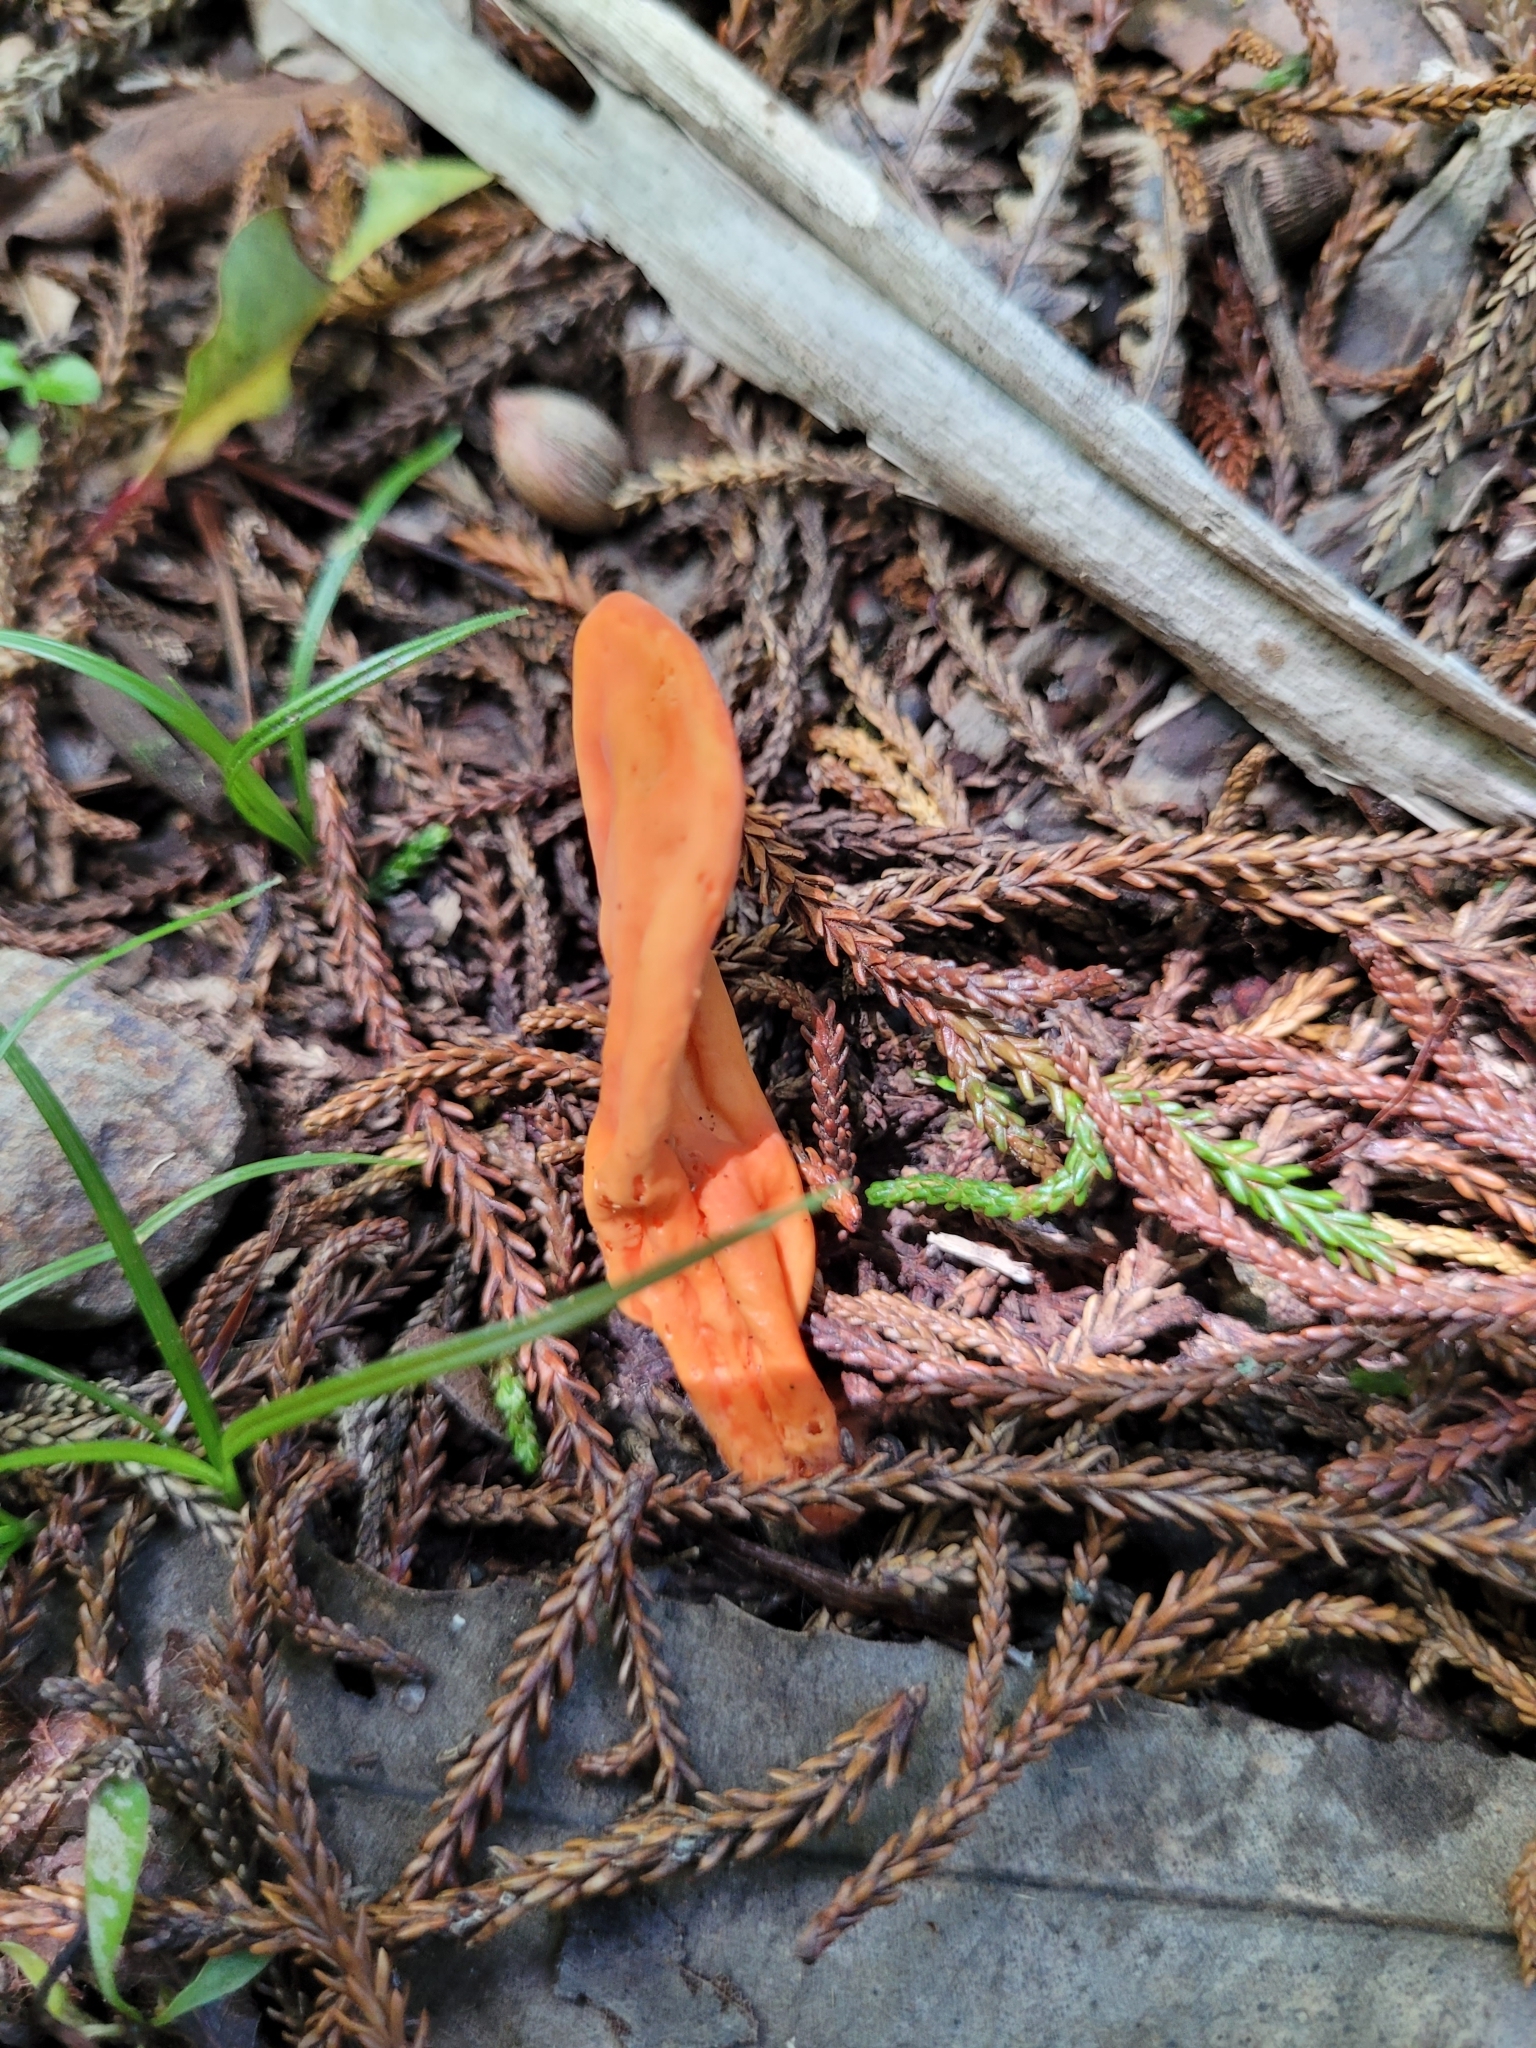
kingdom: Fungi
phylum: Basidiomycota
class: Agaricomycetes
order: Agaricales
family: Clavariaceae
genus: Clavulinopsis
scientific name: Clavulinopsis sulcata
